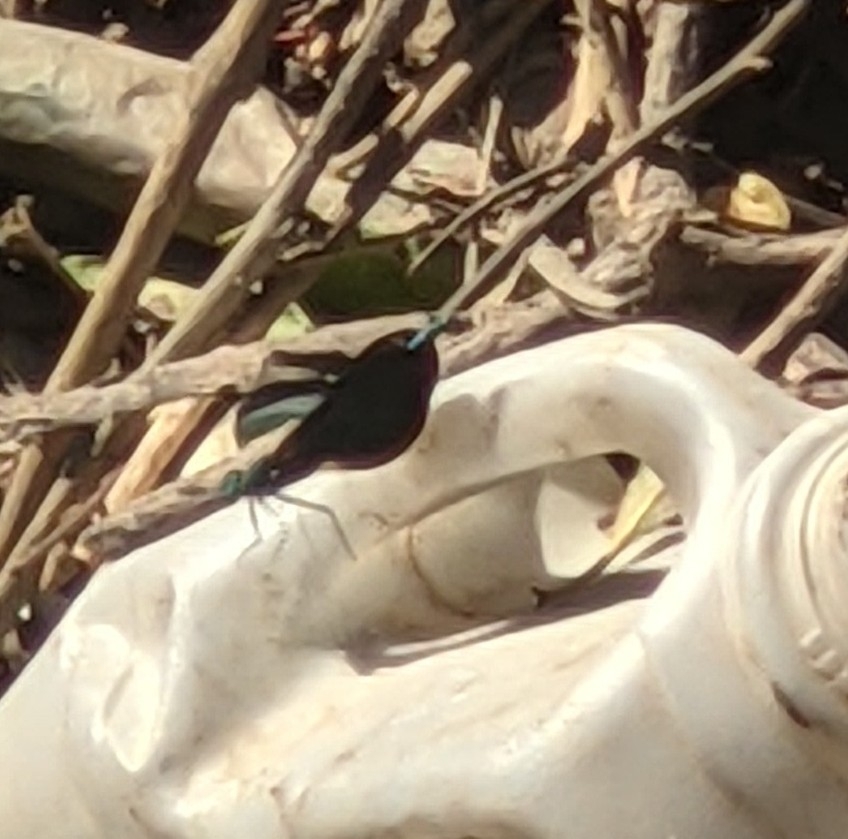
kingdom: Animalia
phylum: Arthropoda
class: Insecta
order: Odonata
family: Calopterygidae
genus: Calopteryx
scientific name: Calopteryx virgo
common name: Beautiful demoiselle
